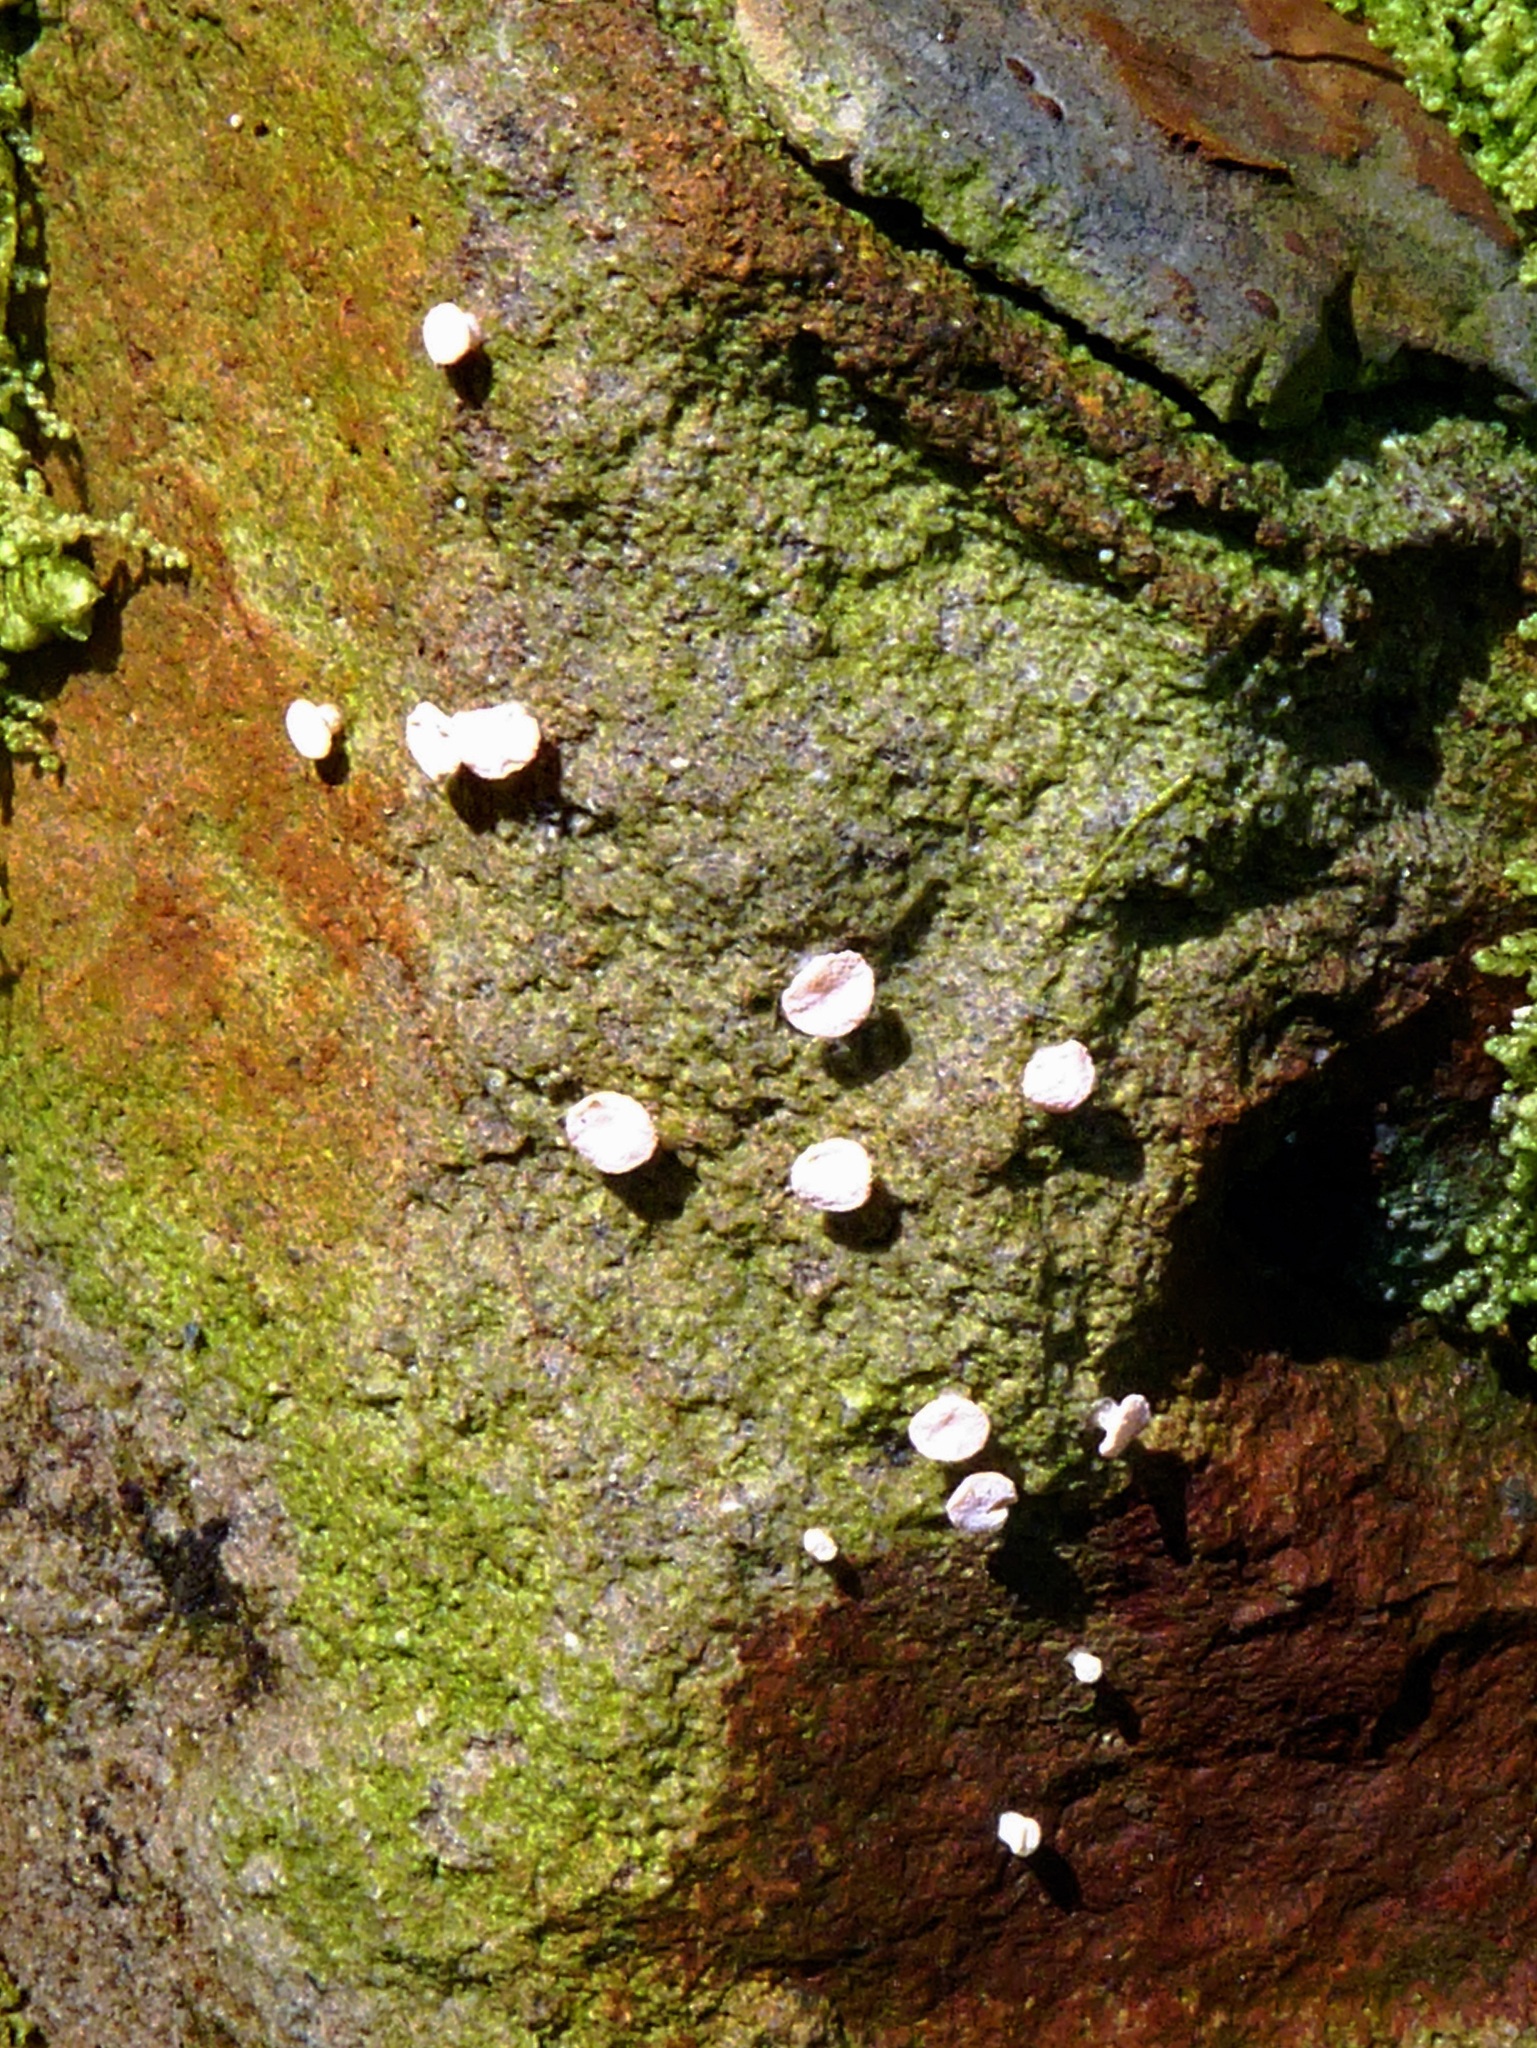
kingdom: Fungi
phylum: Ascomycota
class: Lecanoromycetes
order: Pertusariales
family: Icmadophilaceae
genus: Dibaeis
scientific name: Dibaeis absoluta
